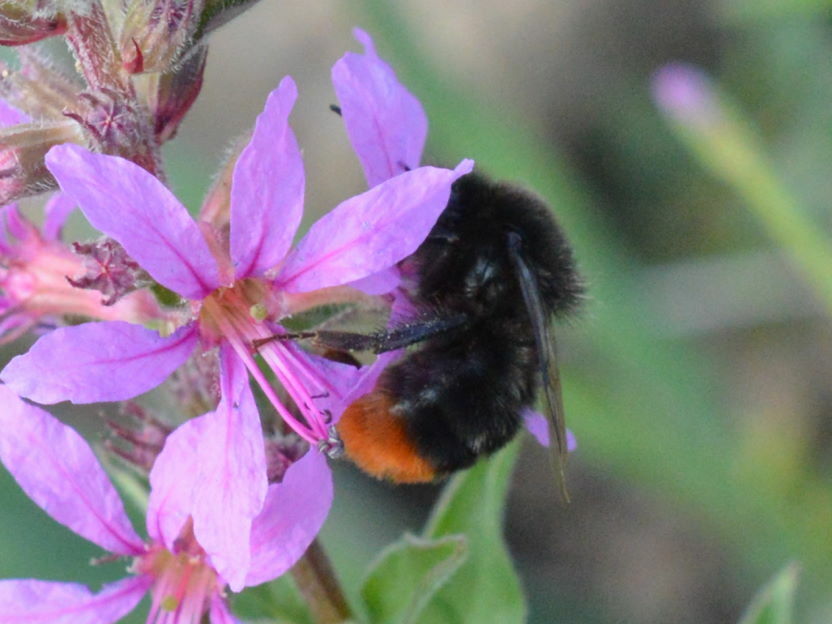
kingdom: Animalia
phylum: Arthropoda
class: Insecta
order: Hymenoptera
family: Apidae
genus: Bombus
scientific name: Bombus lapidarius
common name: Large red-tailed humble-bee
